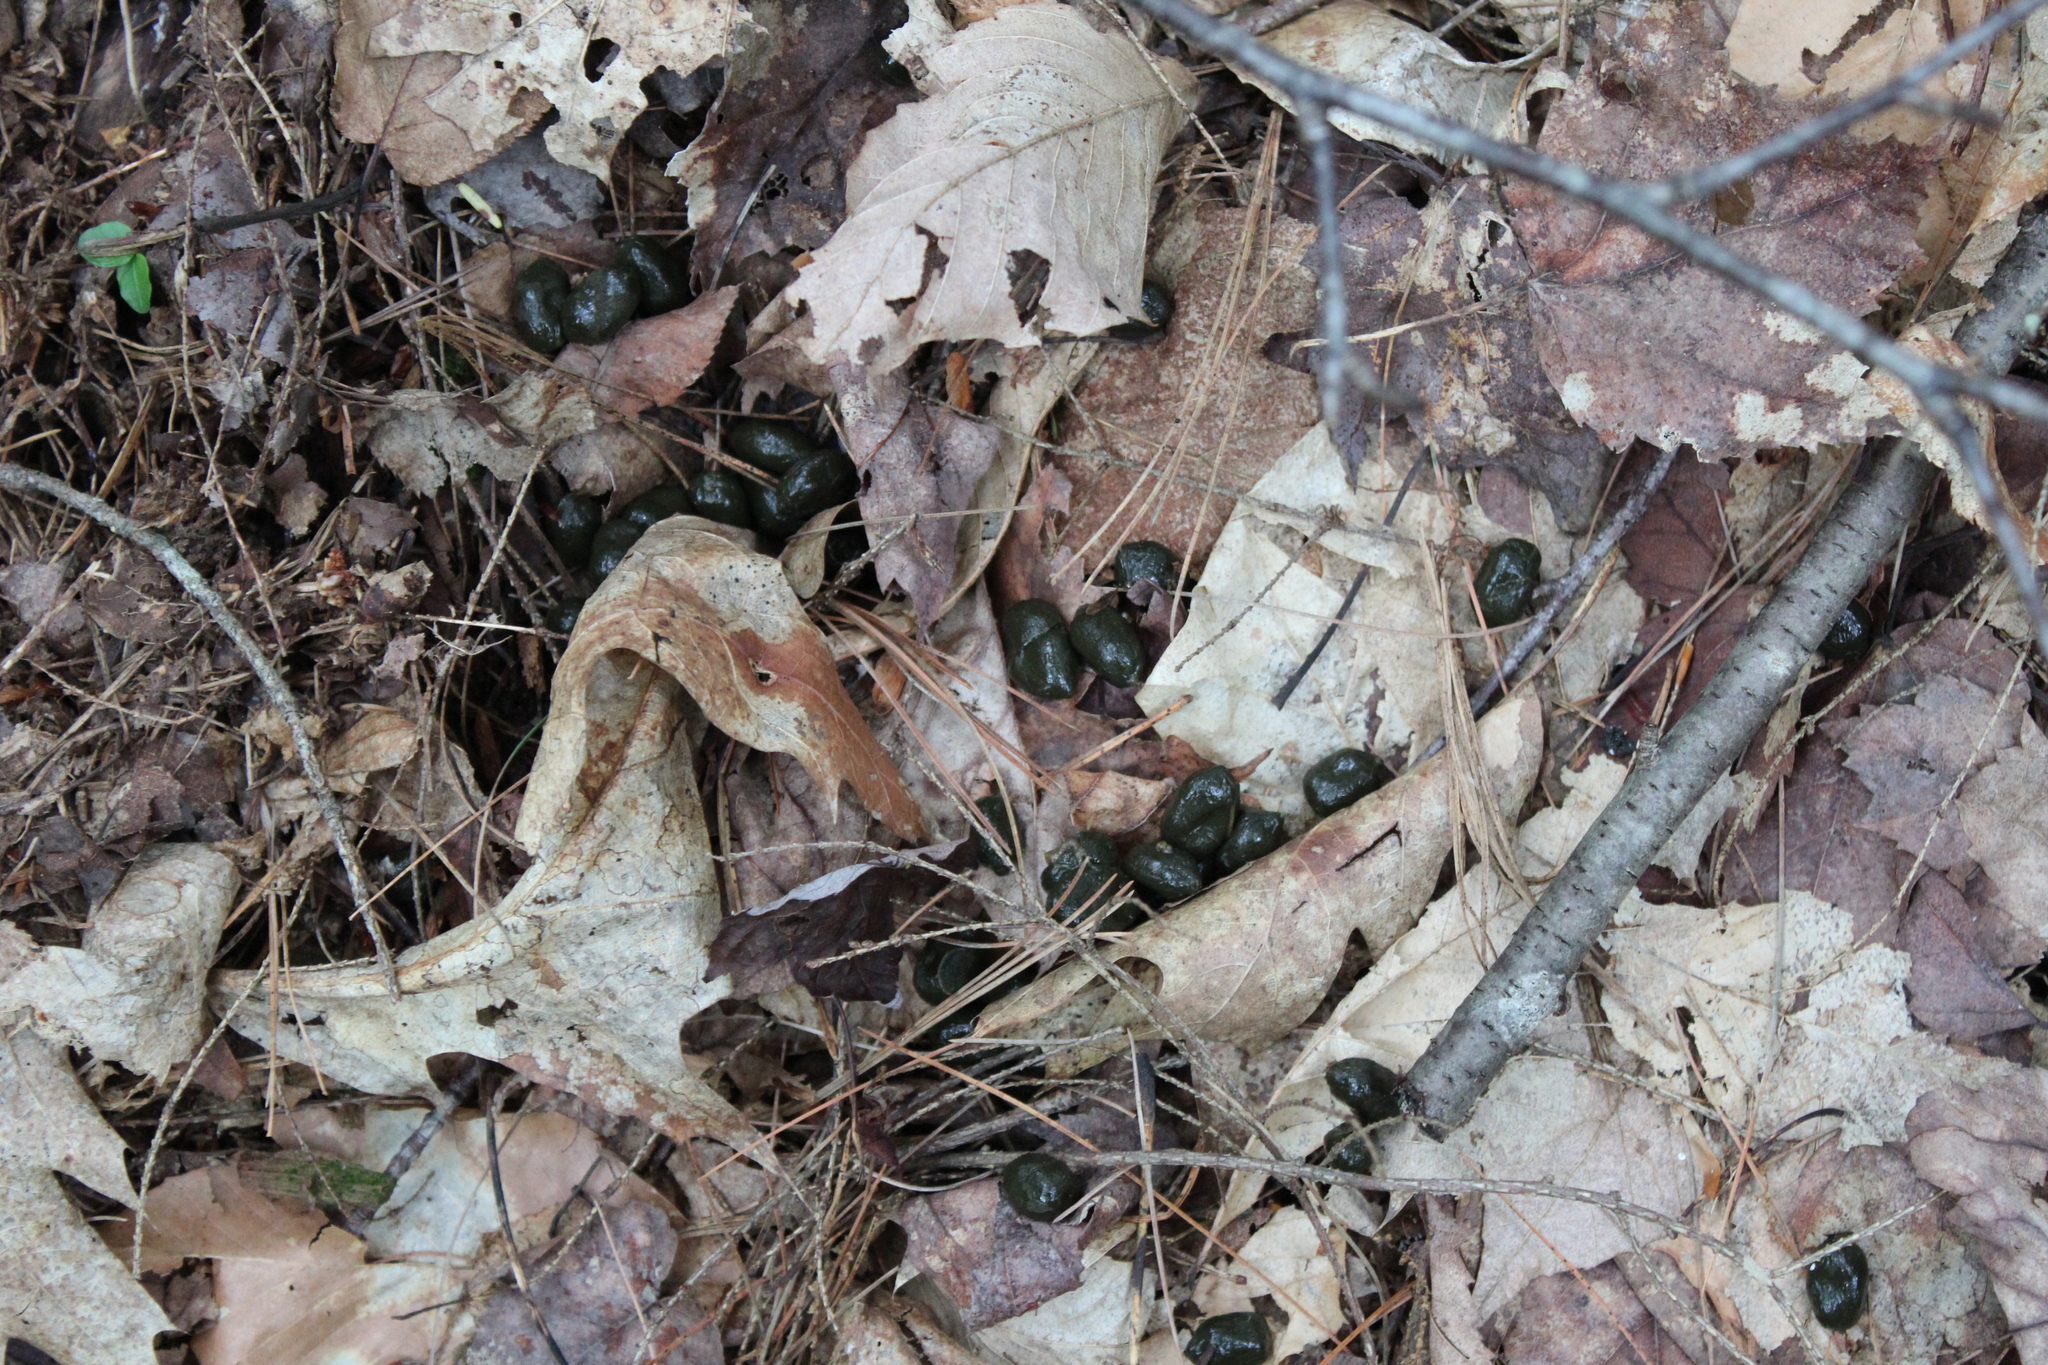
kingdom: Animalia
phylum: Chordata
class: Mammalia
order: Artiodactyla
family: Cervidae
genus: Odocoileus
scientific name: Odocoileus virginianus
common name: White-tailed deer
